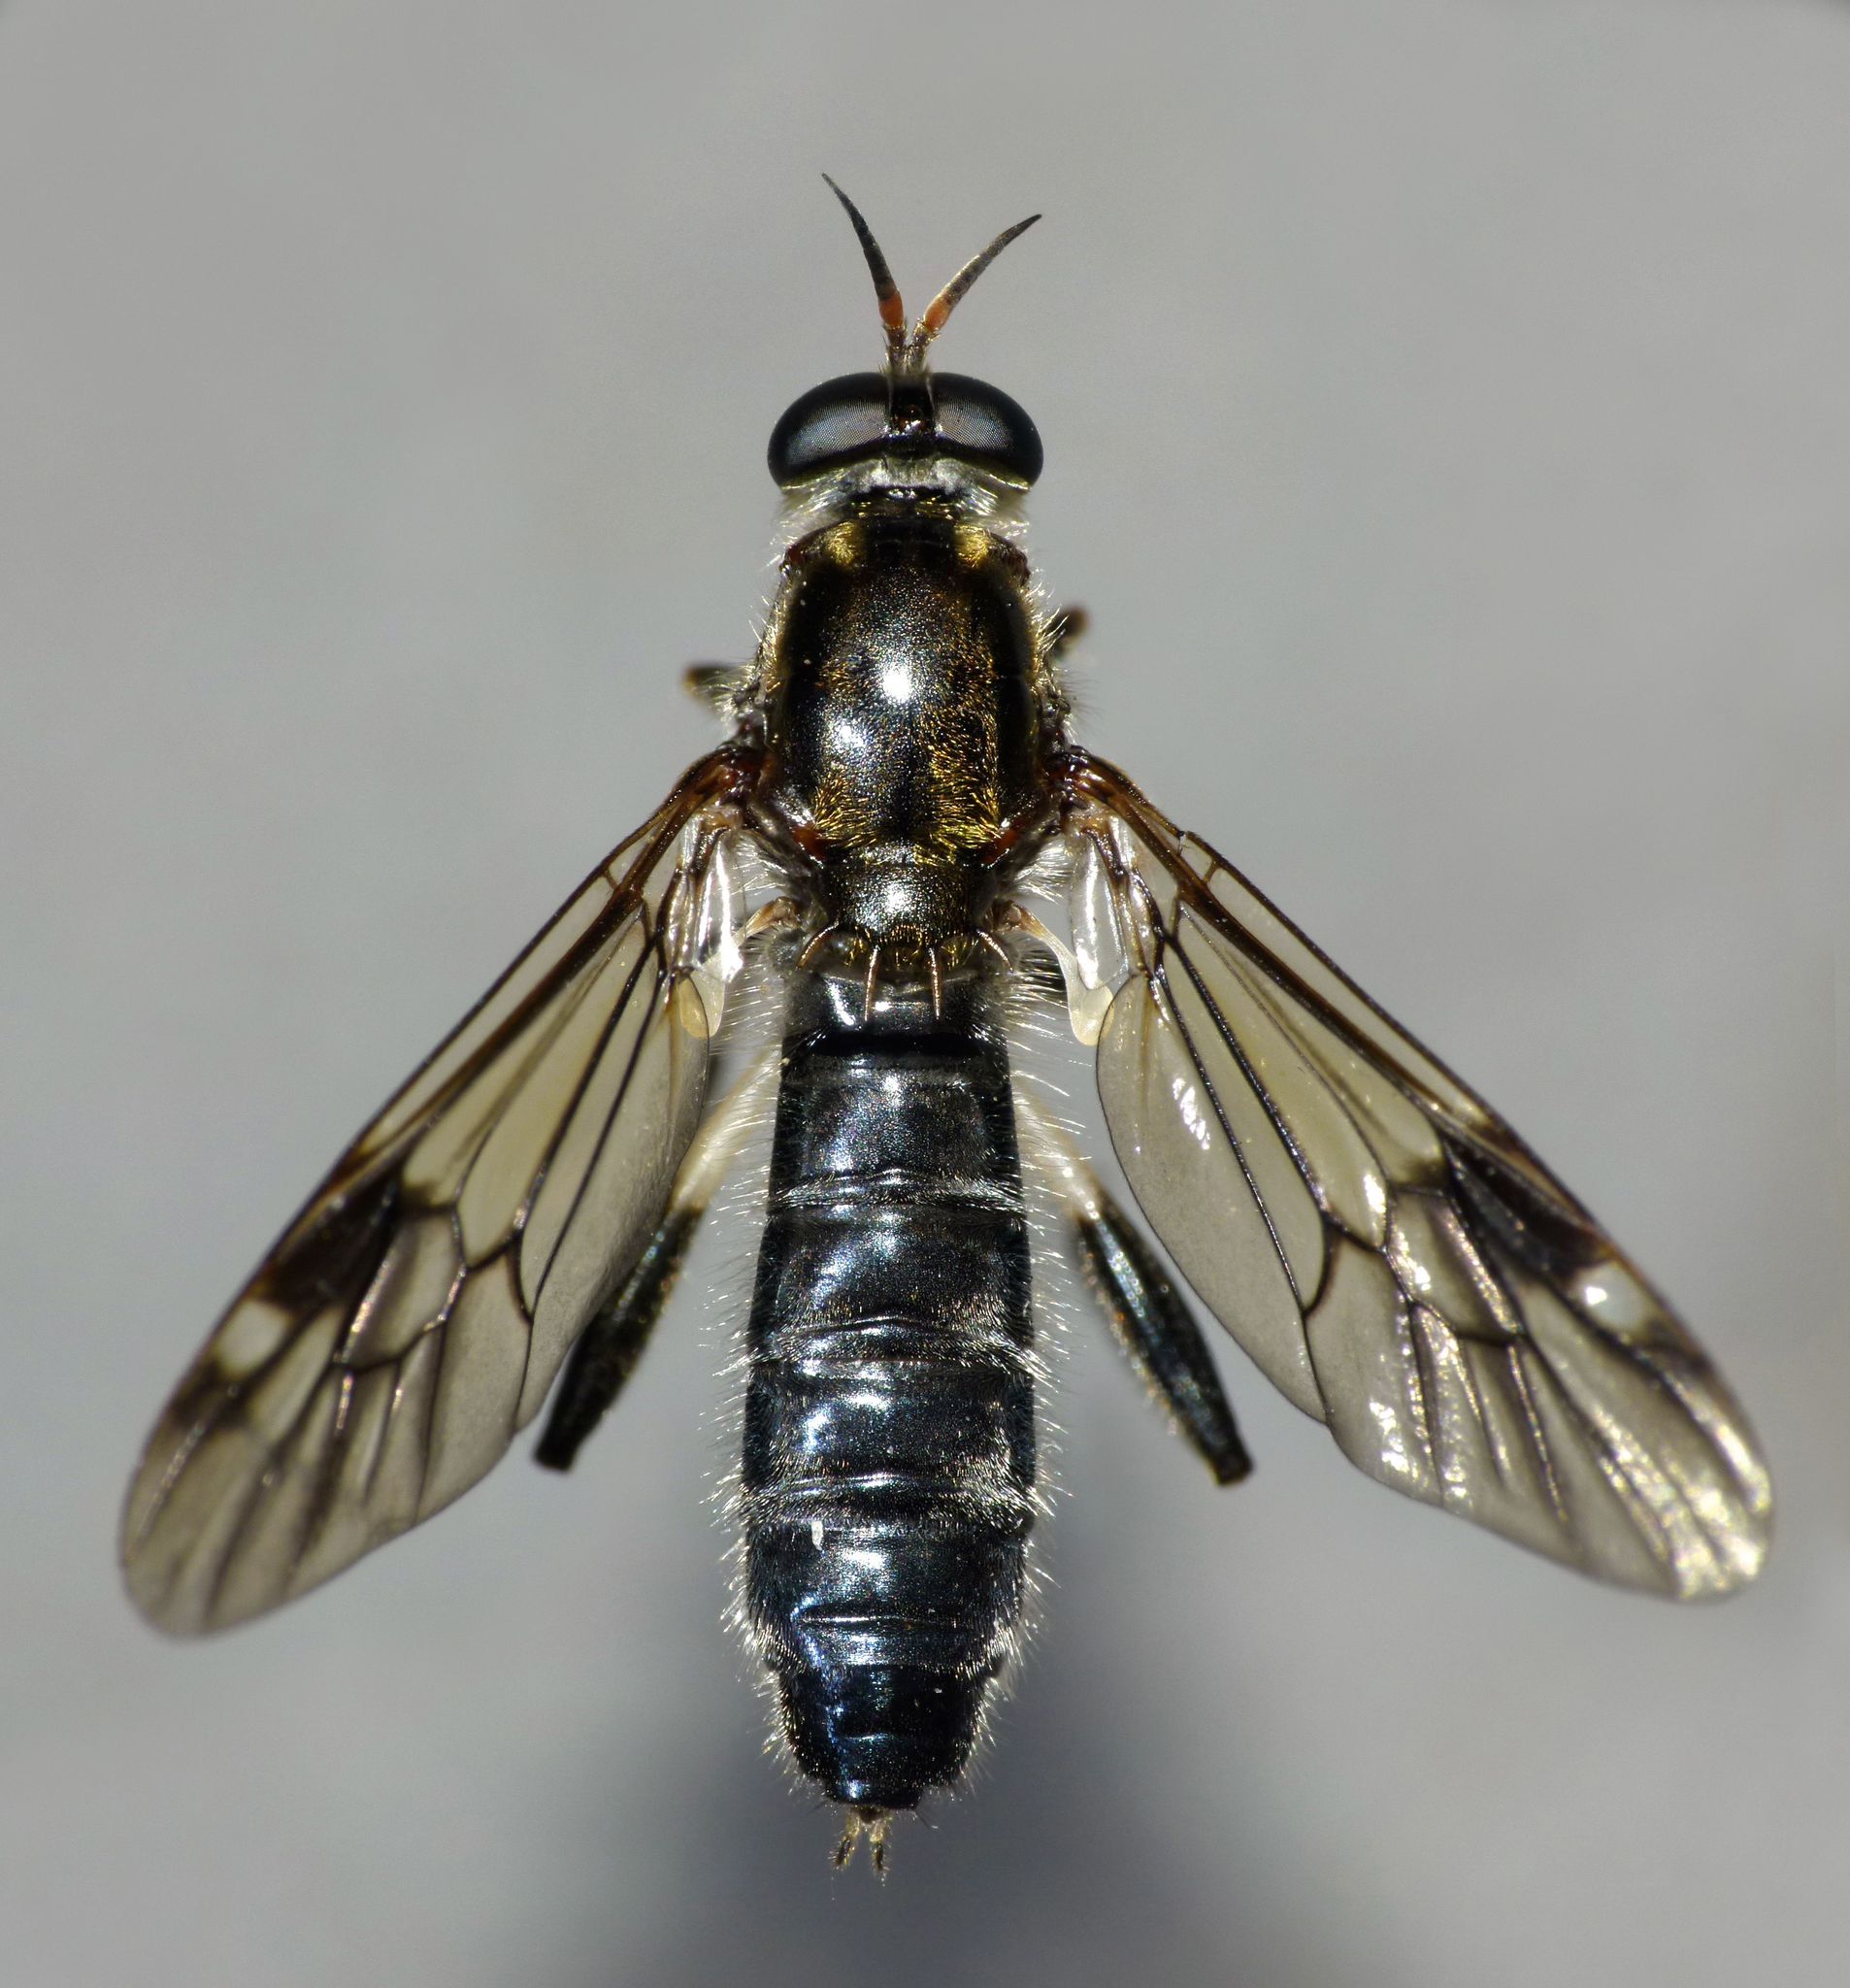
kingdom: Animalia
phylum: Arthropoda
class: Insecta
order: Diptera
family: Stratiomyidae
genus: Exaireta
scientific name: Exaireta spinigera
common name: Blue soldier fly
